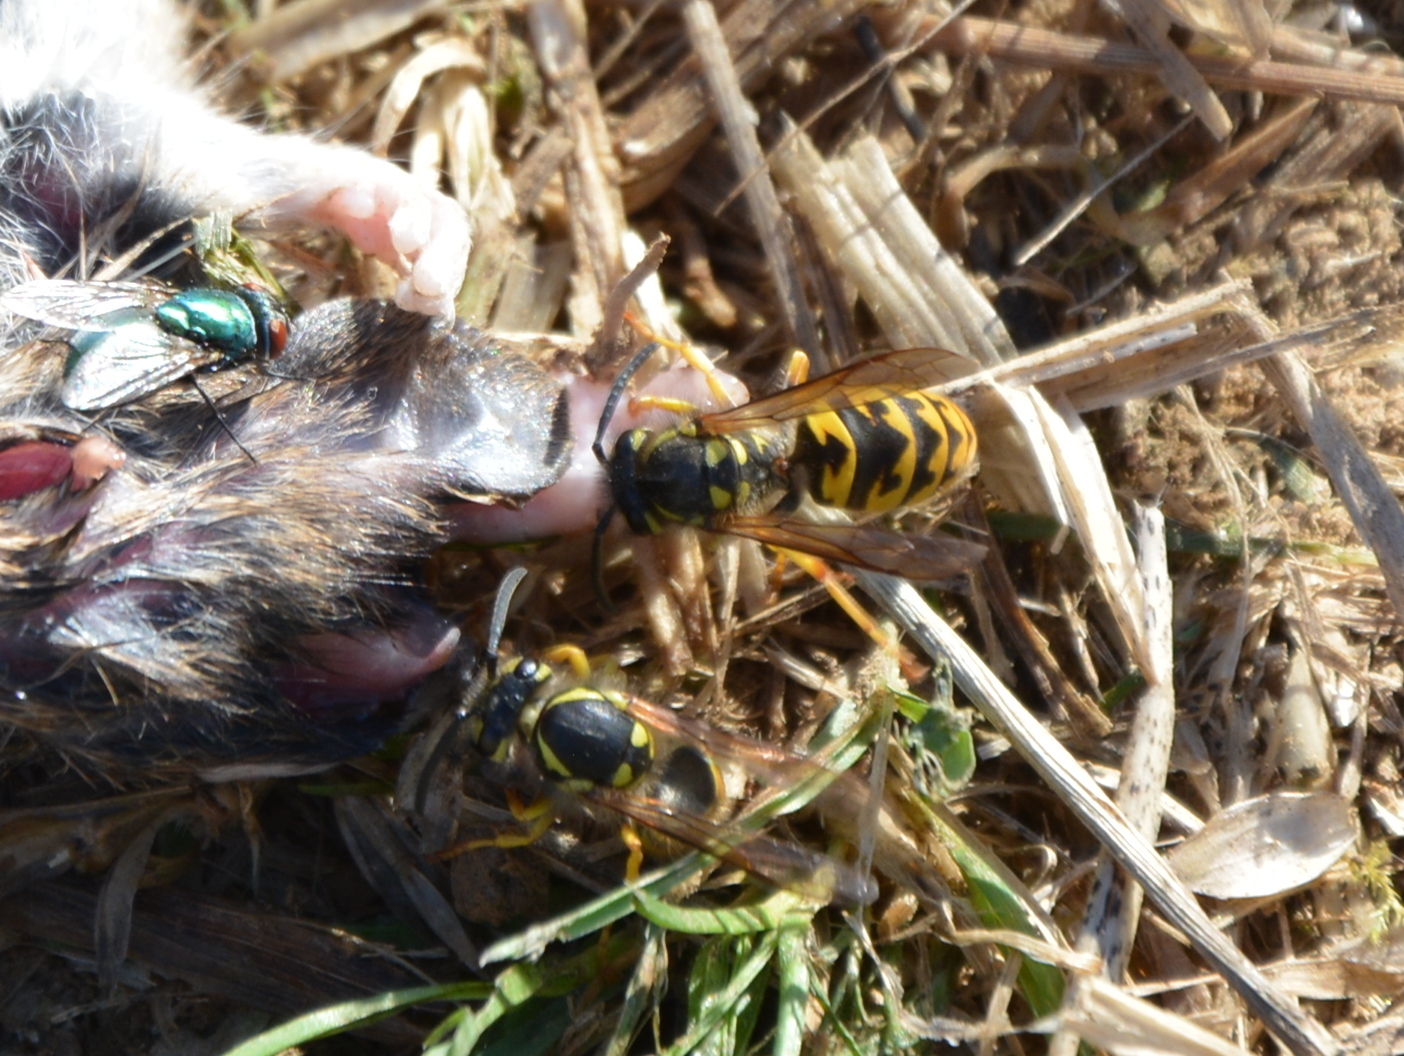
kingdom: Animalia
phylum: Arthropoda
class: Insecta
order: Hymenoptera
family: Vespidae
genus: Vespula
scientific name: Vespula germanica
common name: German wasp
